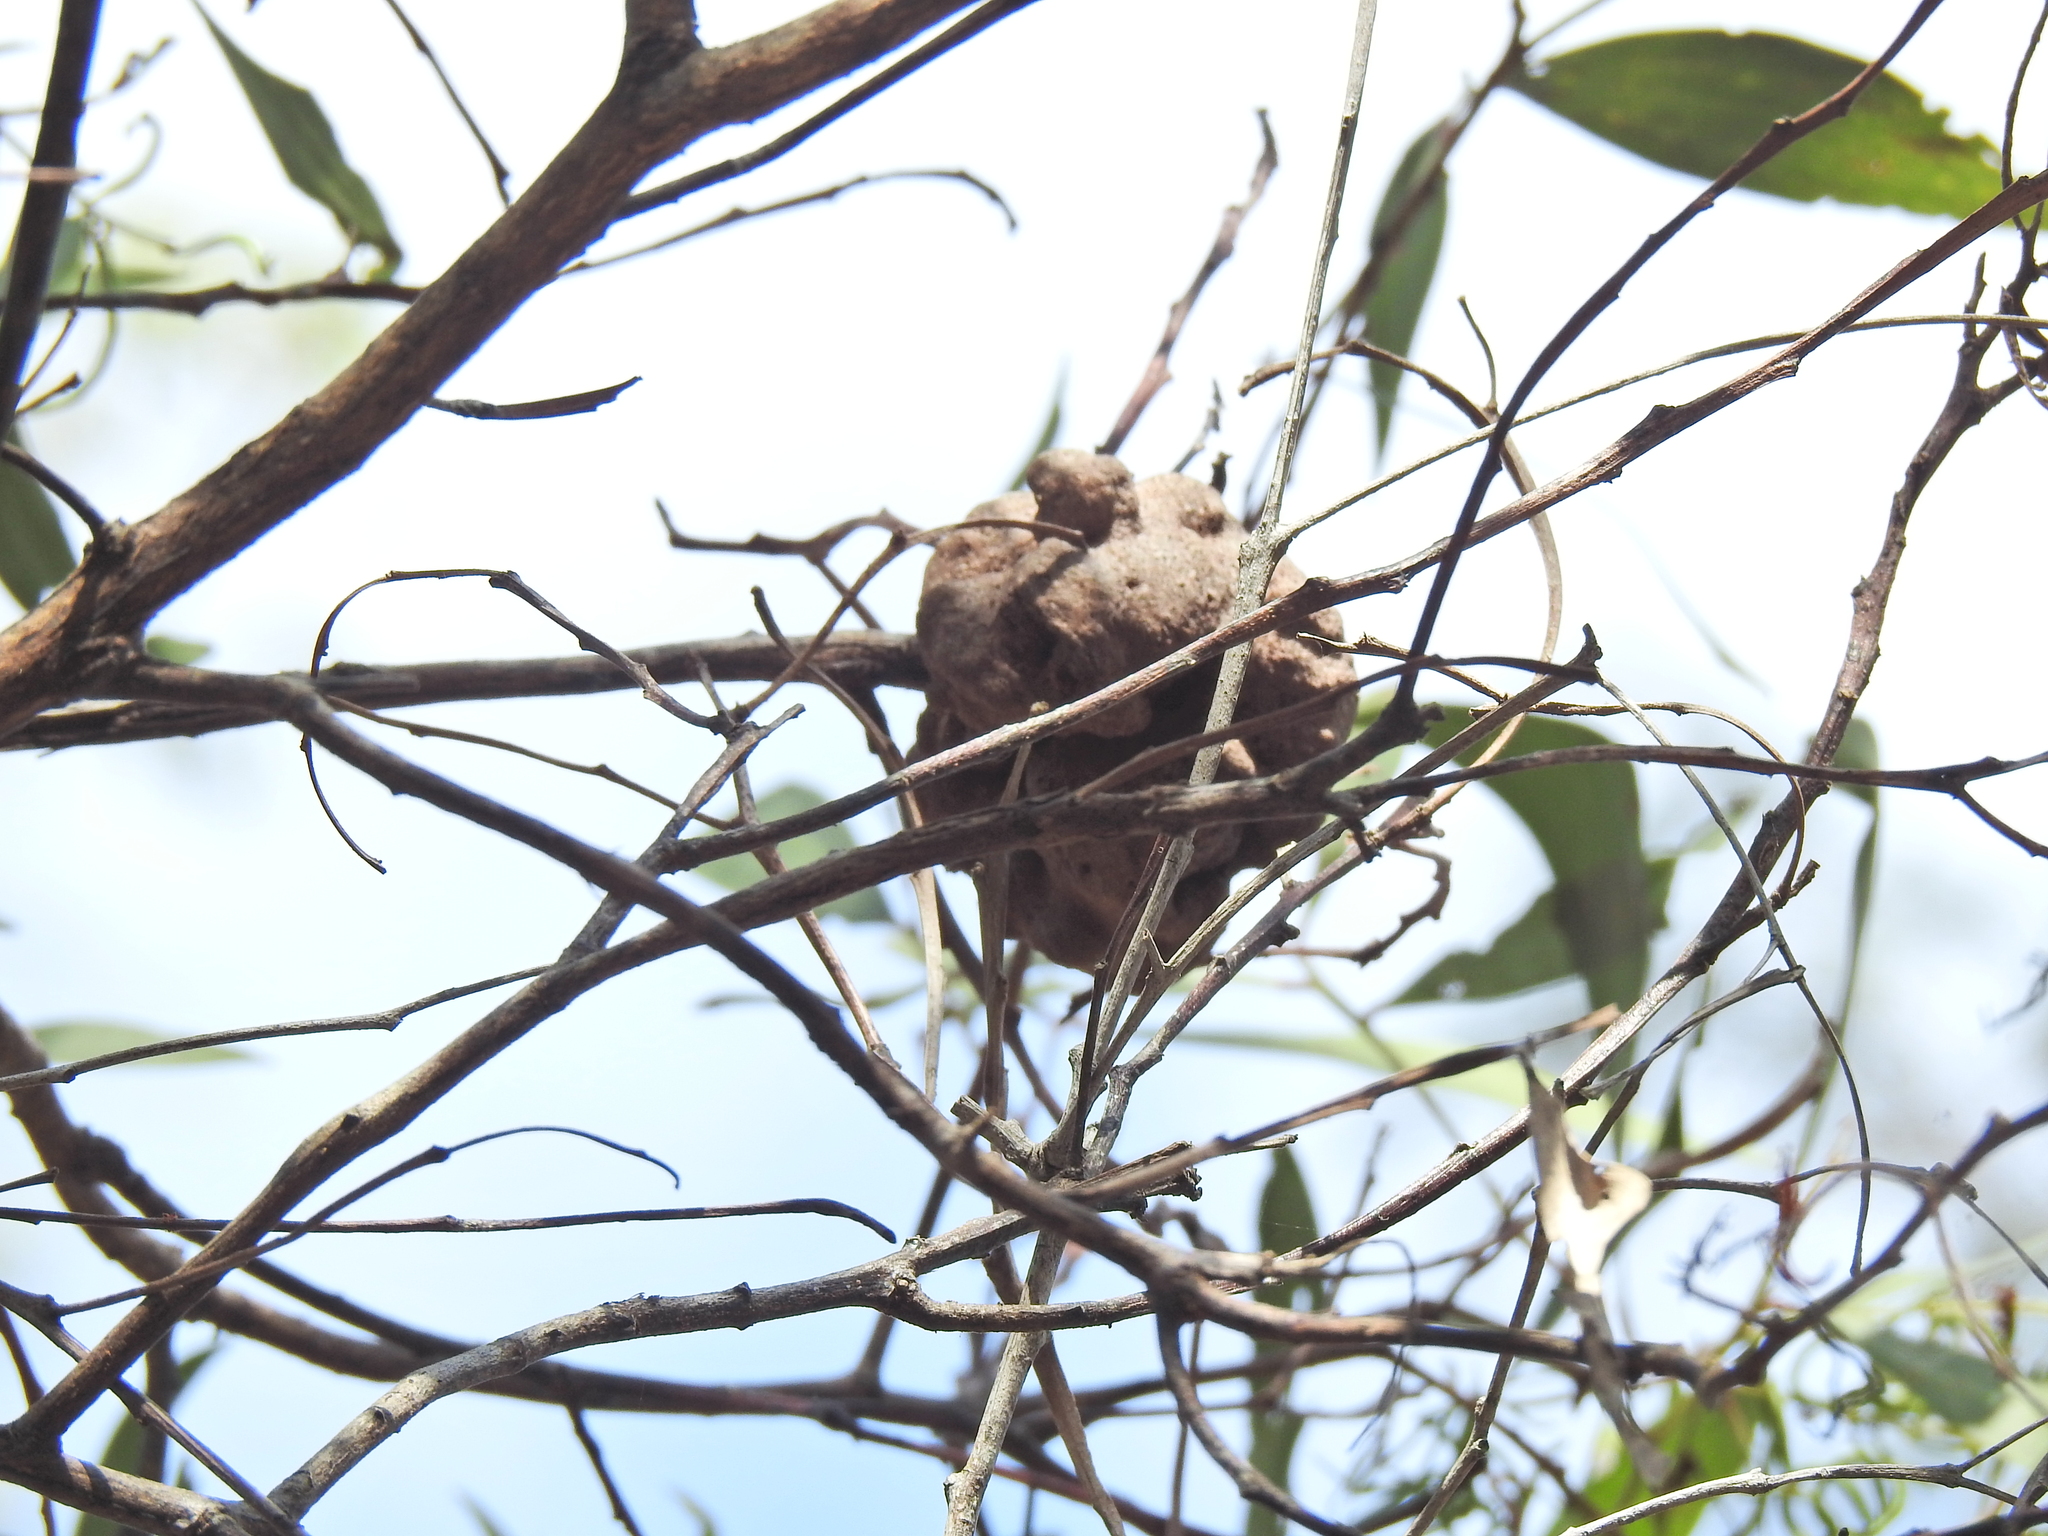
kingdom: Fungi
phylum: Basidiomycota
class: Pucciniomycetes
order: Pucciniales
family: Uromycladiaceae
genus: Uromycladium
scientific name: Uromycladium leiocalycis
